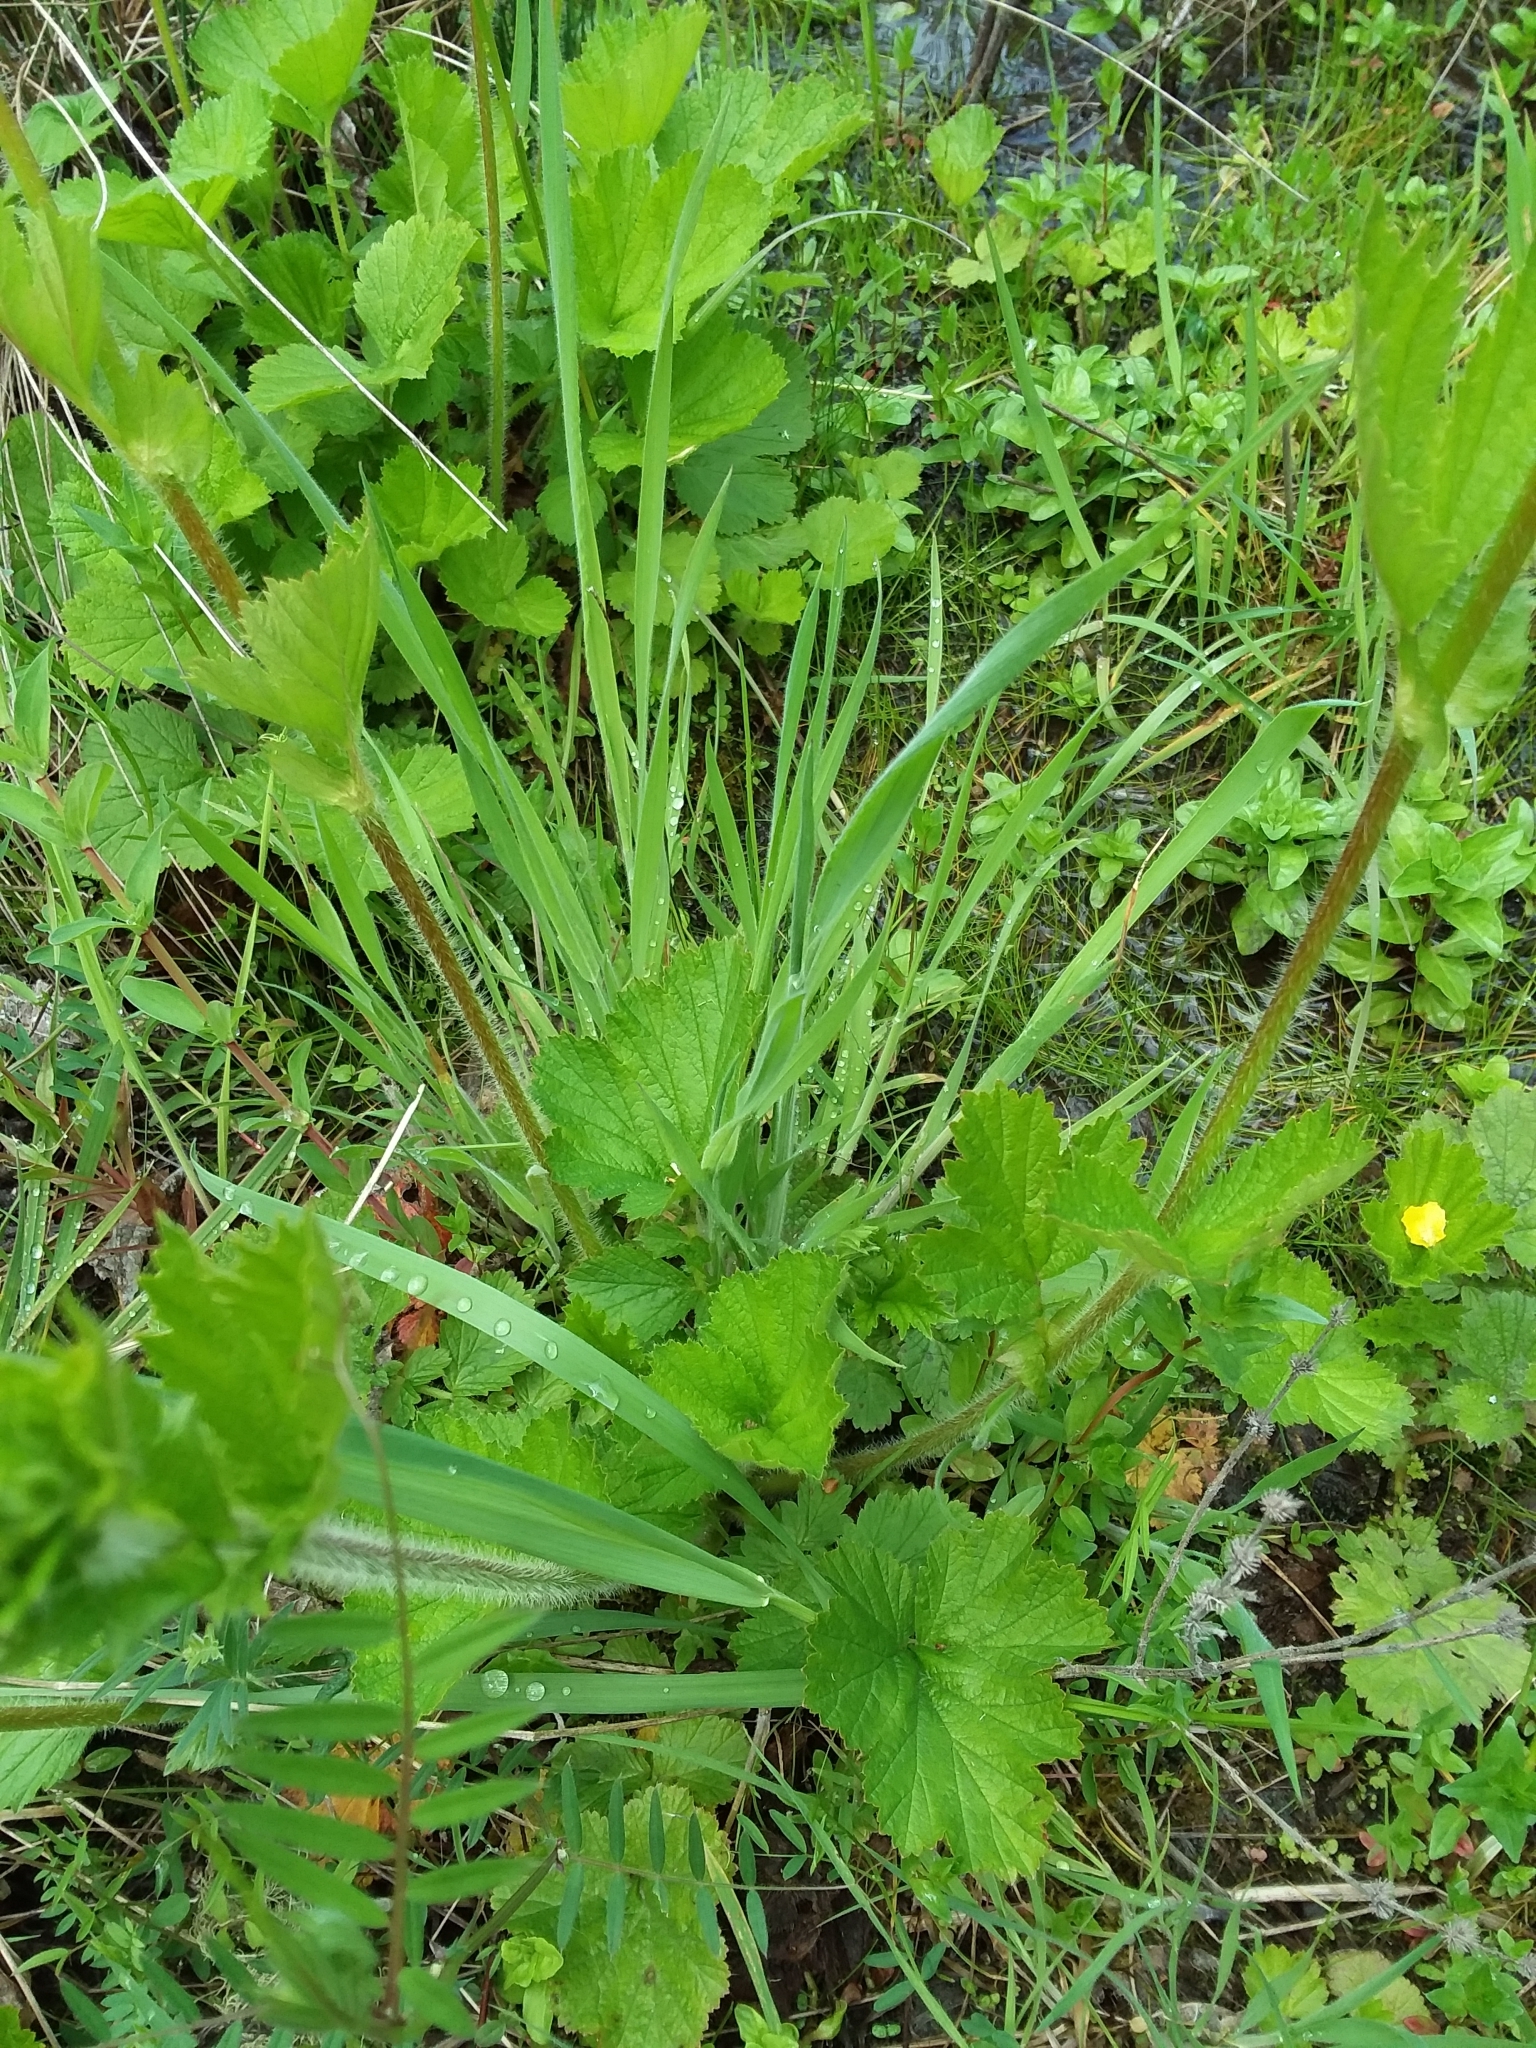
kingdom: Plantae
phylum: Tracheophyta
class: Magnoliopsida
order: Rosales
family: Rosaceae
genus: Geum
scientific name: Geum macrophyllum
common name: Large-leaved avens
